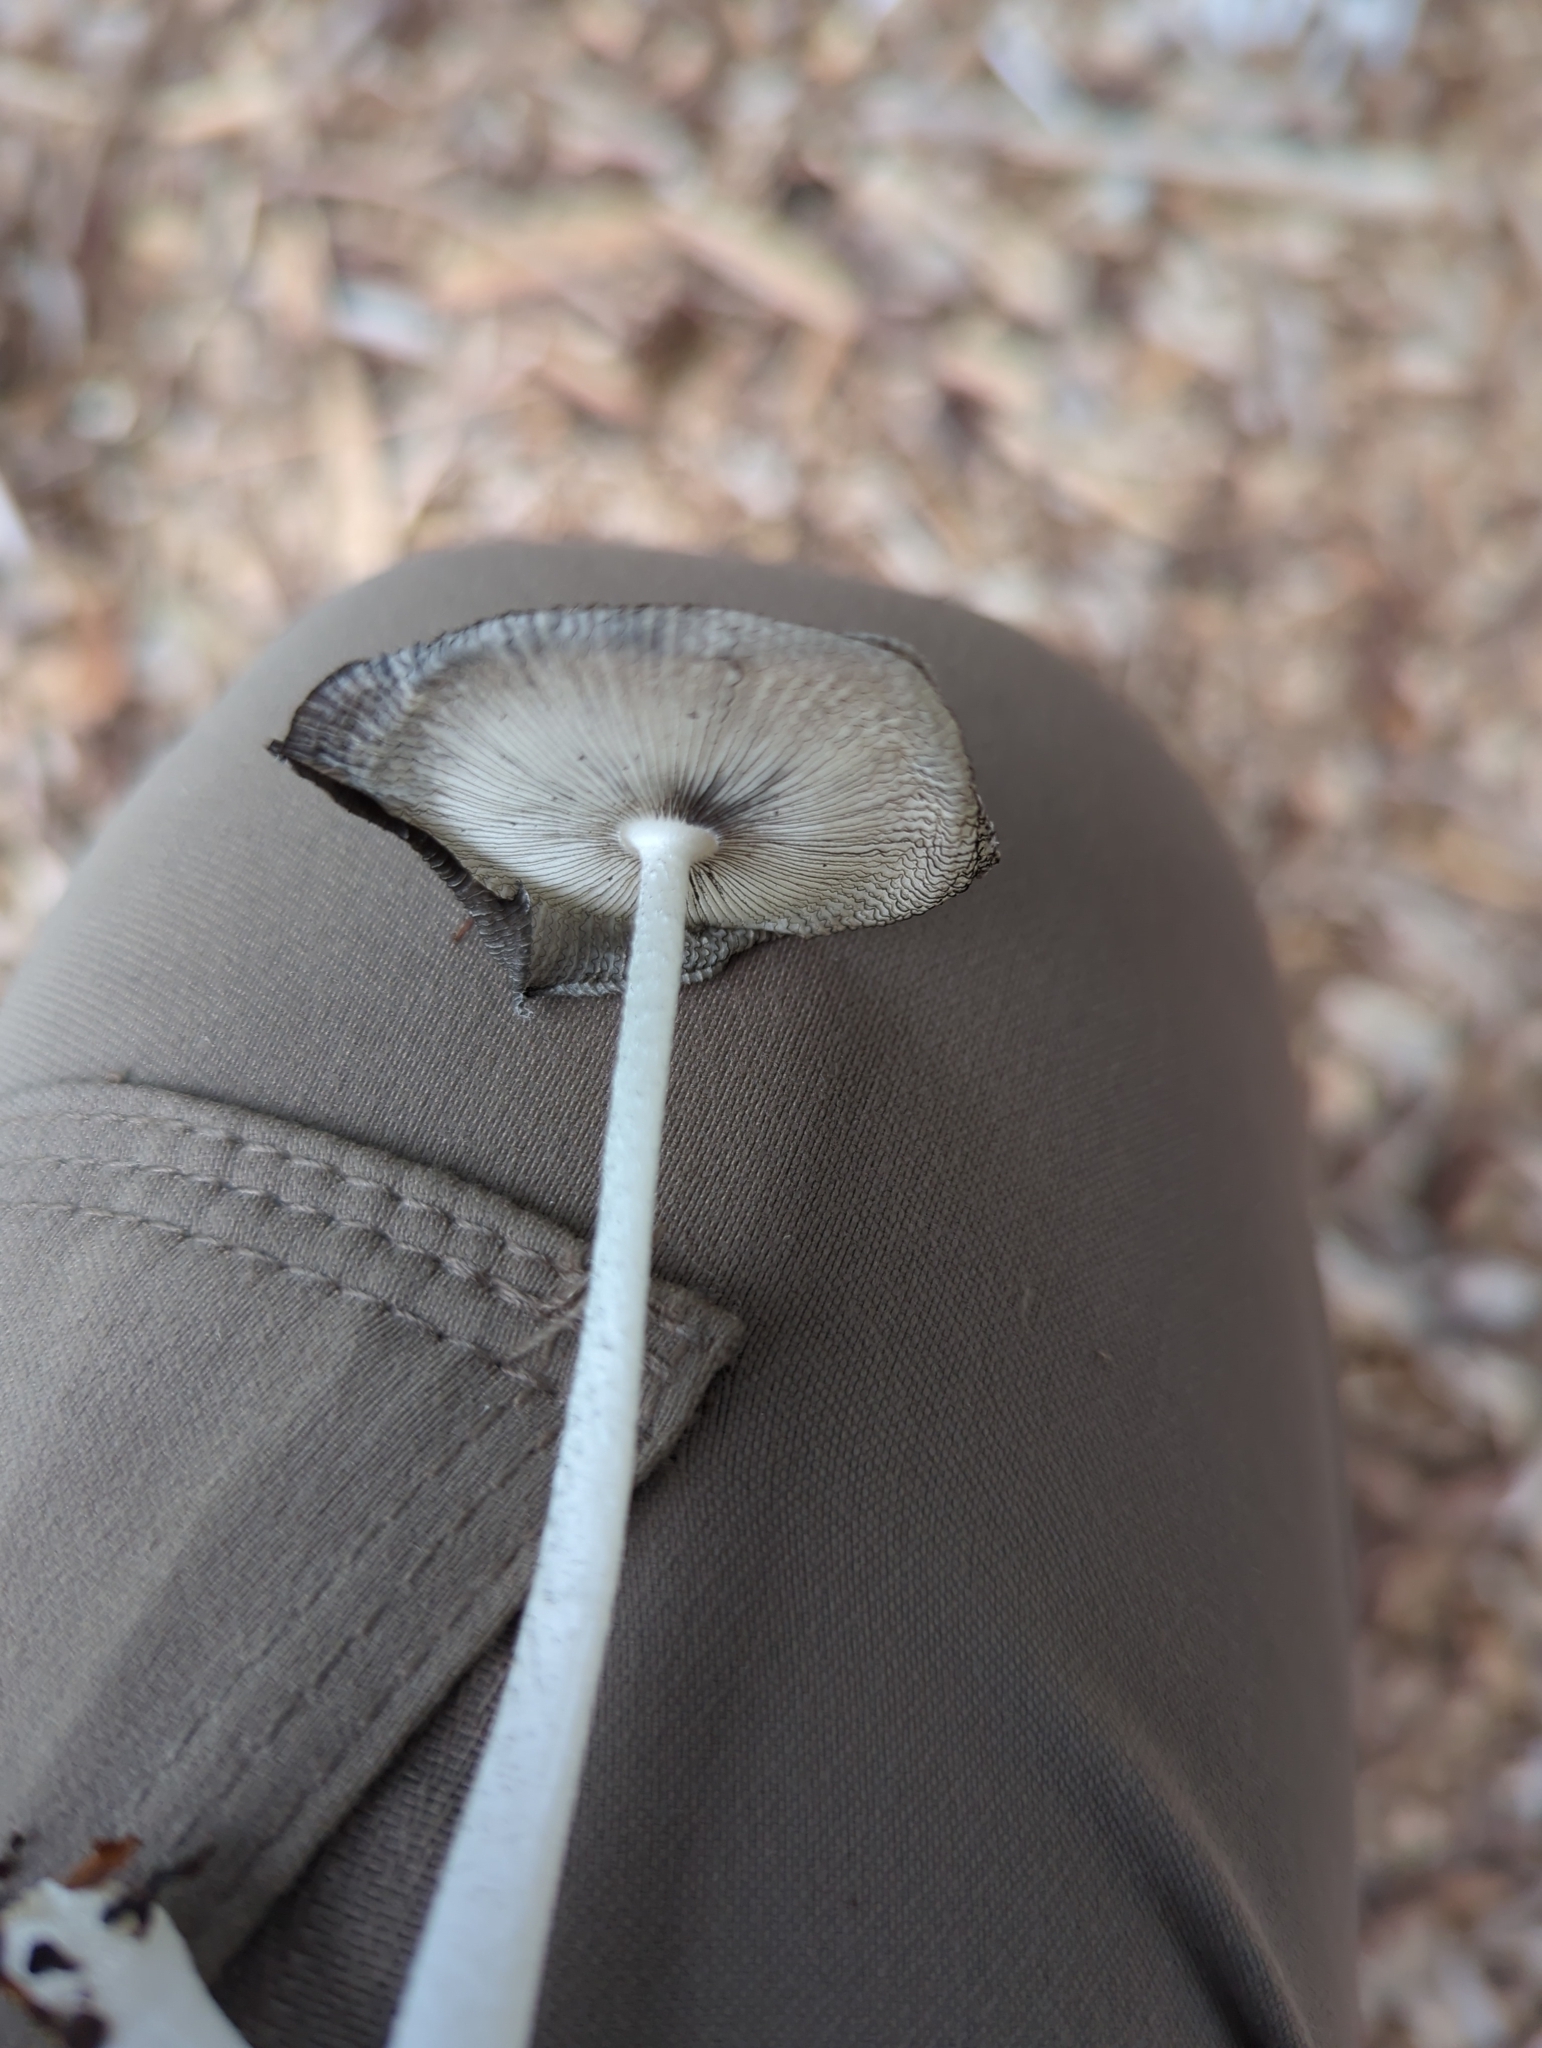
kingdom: Fungi
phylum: Basidiomycota
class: Agaricomycetes
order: Agaricales
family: Psathyrellaceae
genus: Coprinopsis
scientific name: Coprinopsis lagopus
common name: Hare'sfoot inkcap
